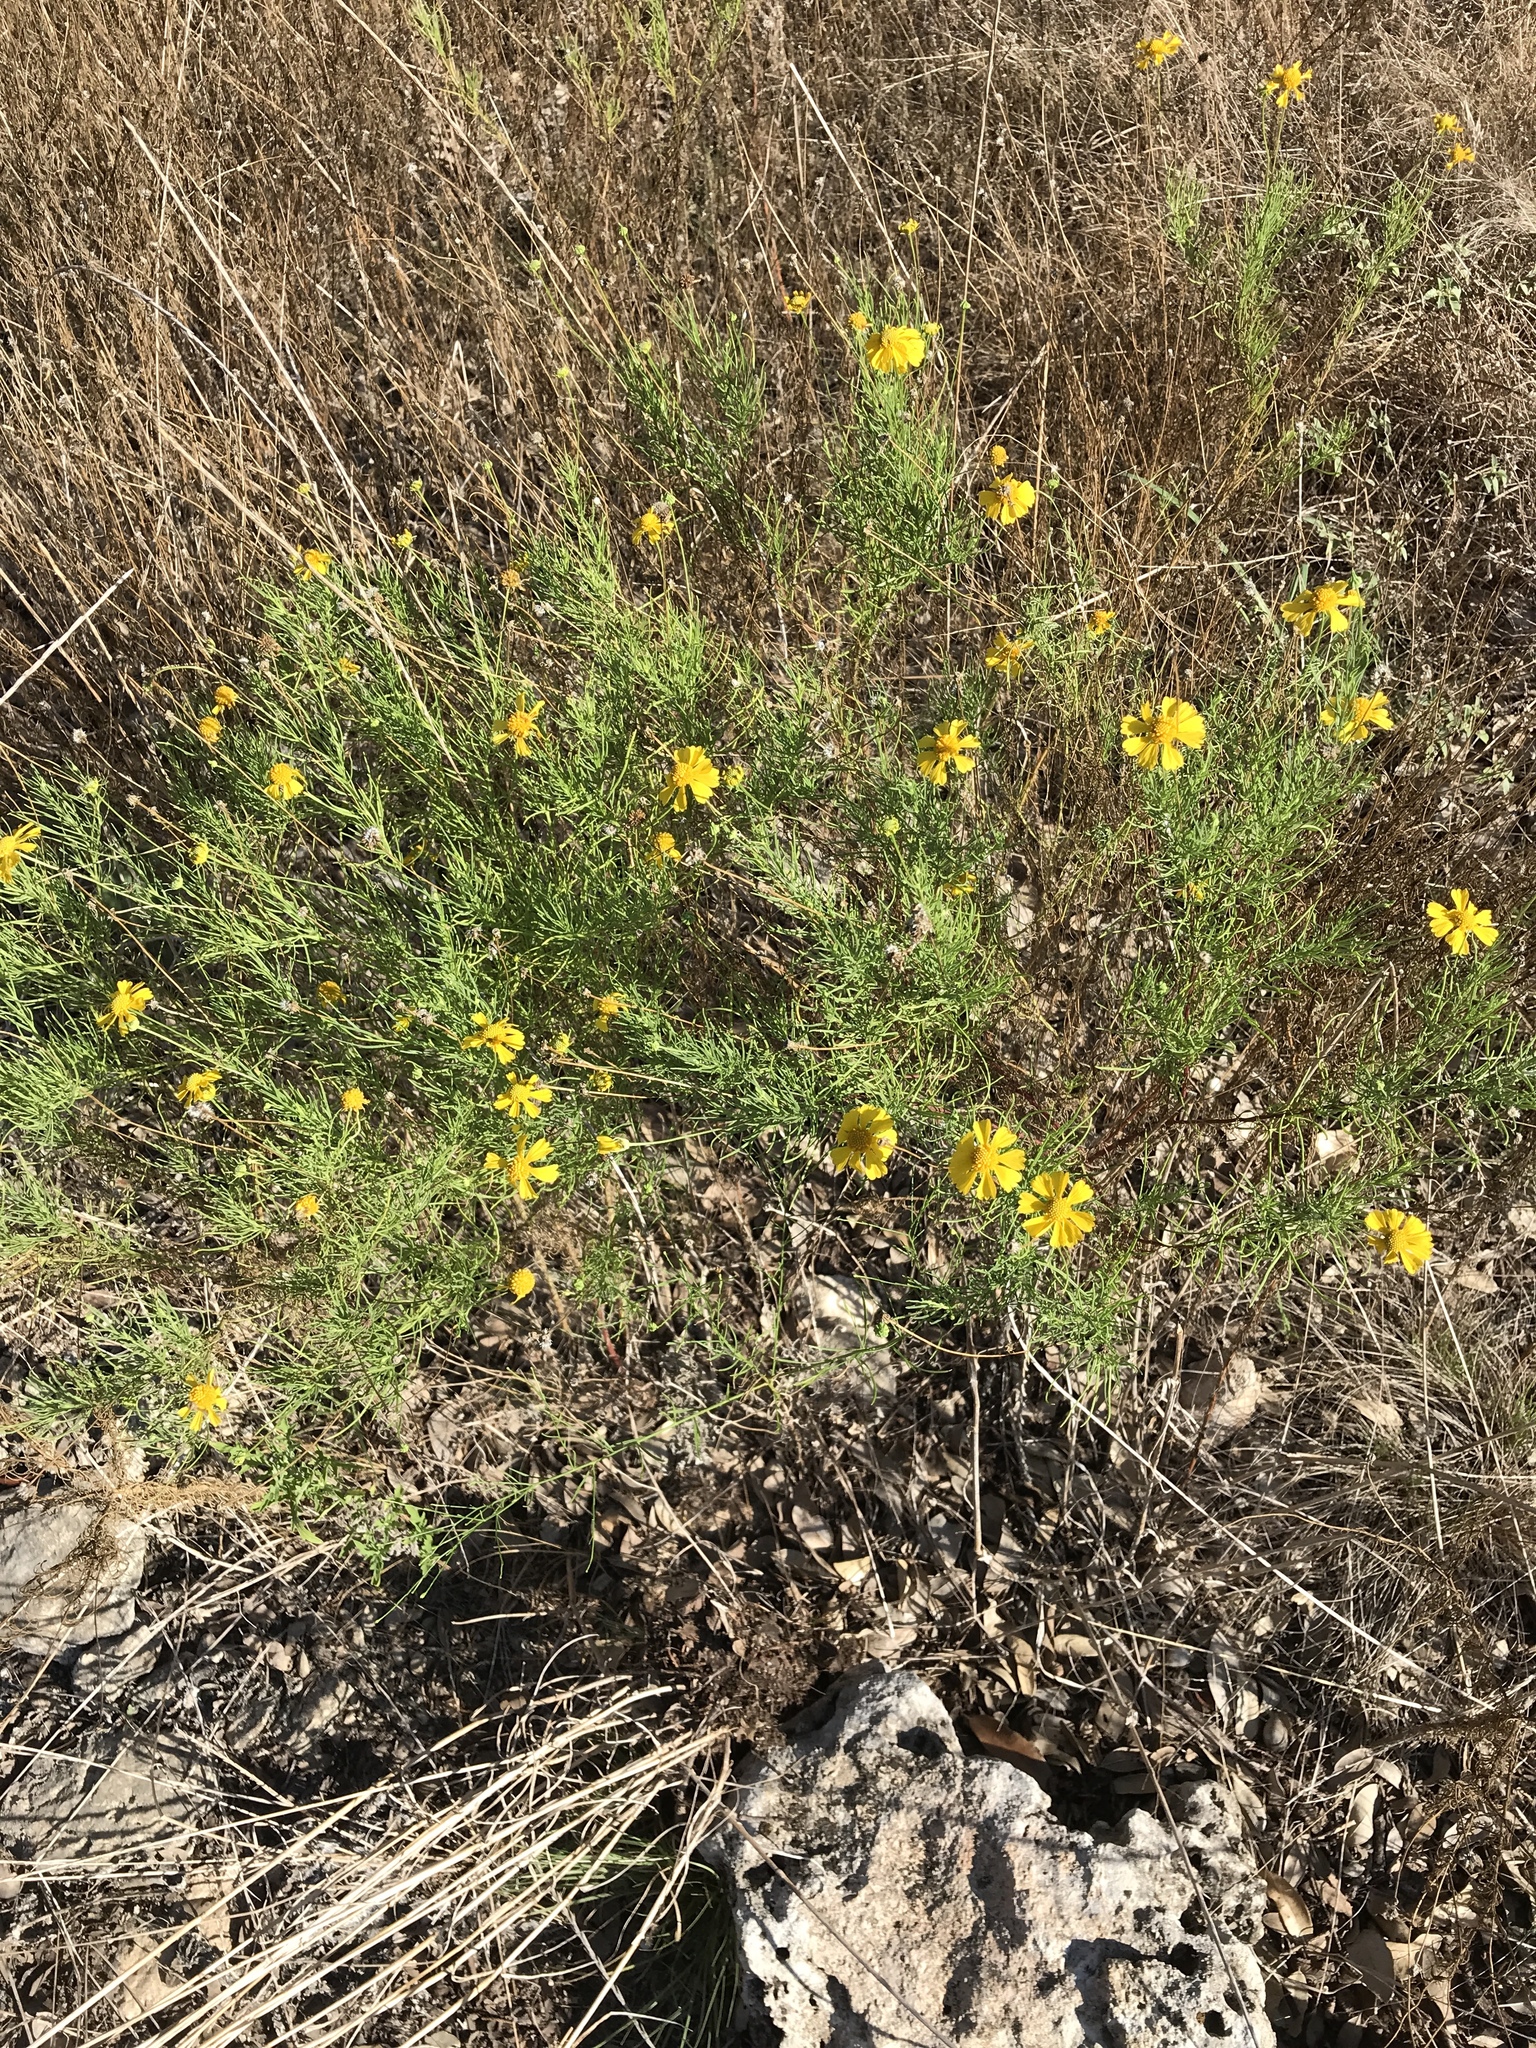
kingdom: Plantae
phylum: Tracheophyta
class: Magnoliopsida
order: Asterales
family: Asteraceae
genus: Helenium
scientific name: Helenium amarum
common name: Bitter sneezeweed
